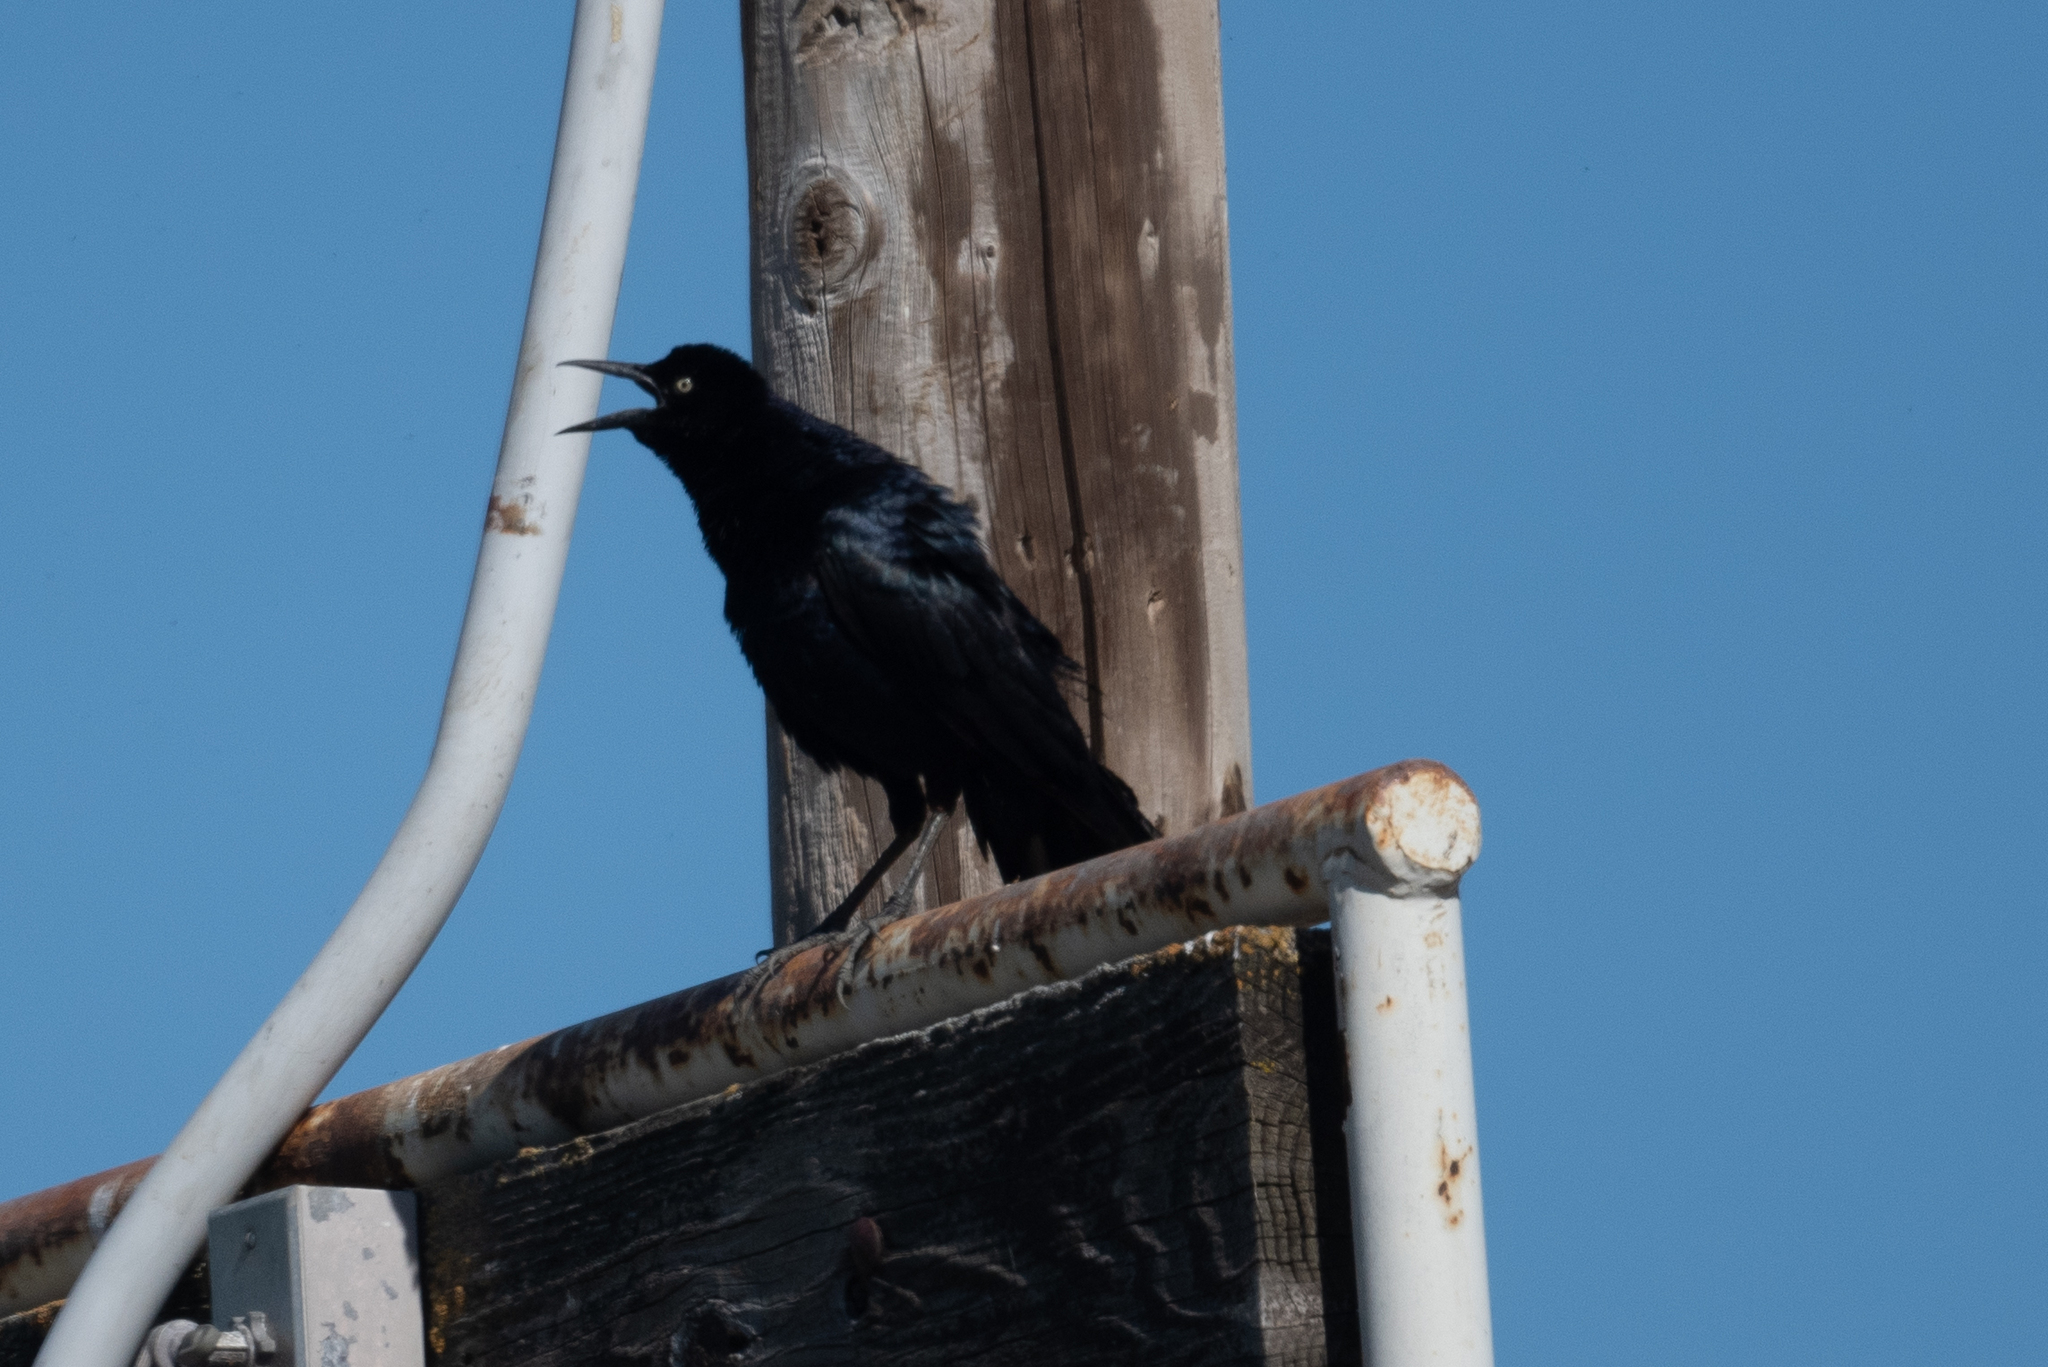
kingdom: Animalia
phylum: Chordata
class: Aves
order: Passeriformes
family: Icteridae
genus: Quiscalus
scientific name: Quiscalus mexicanus
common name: Great-tailed grackle
